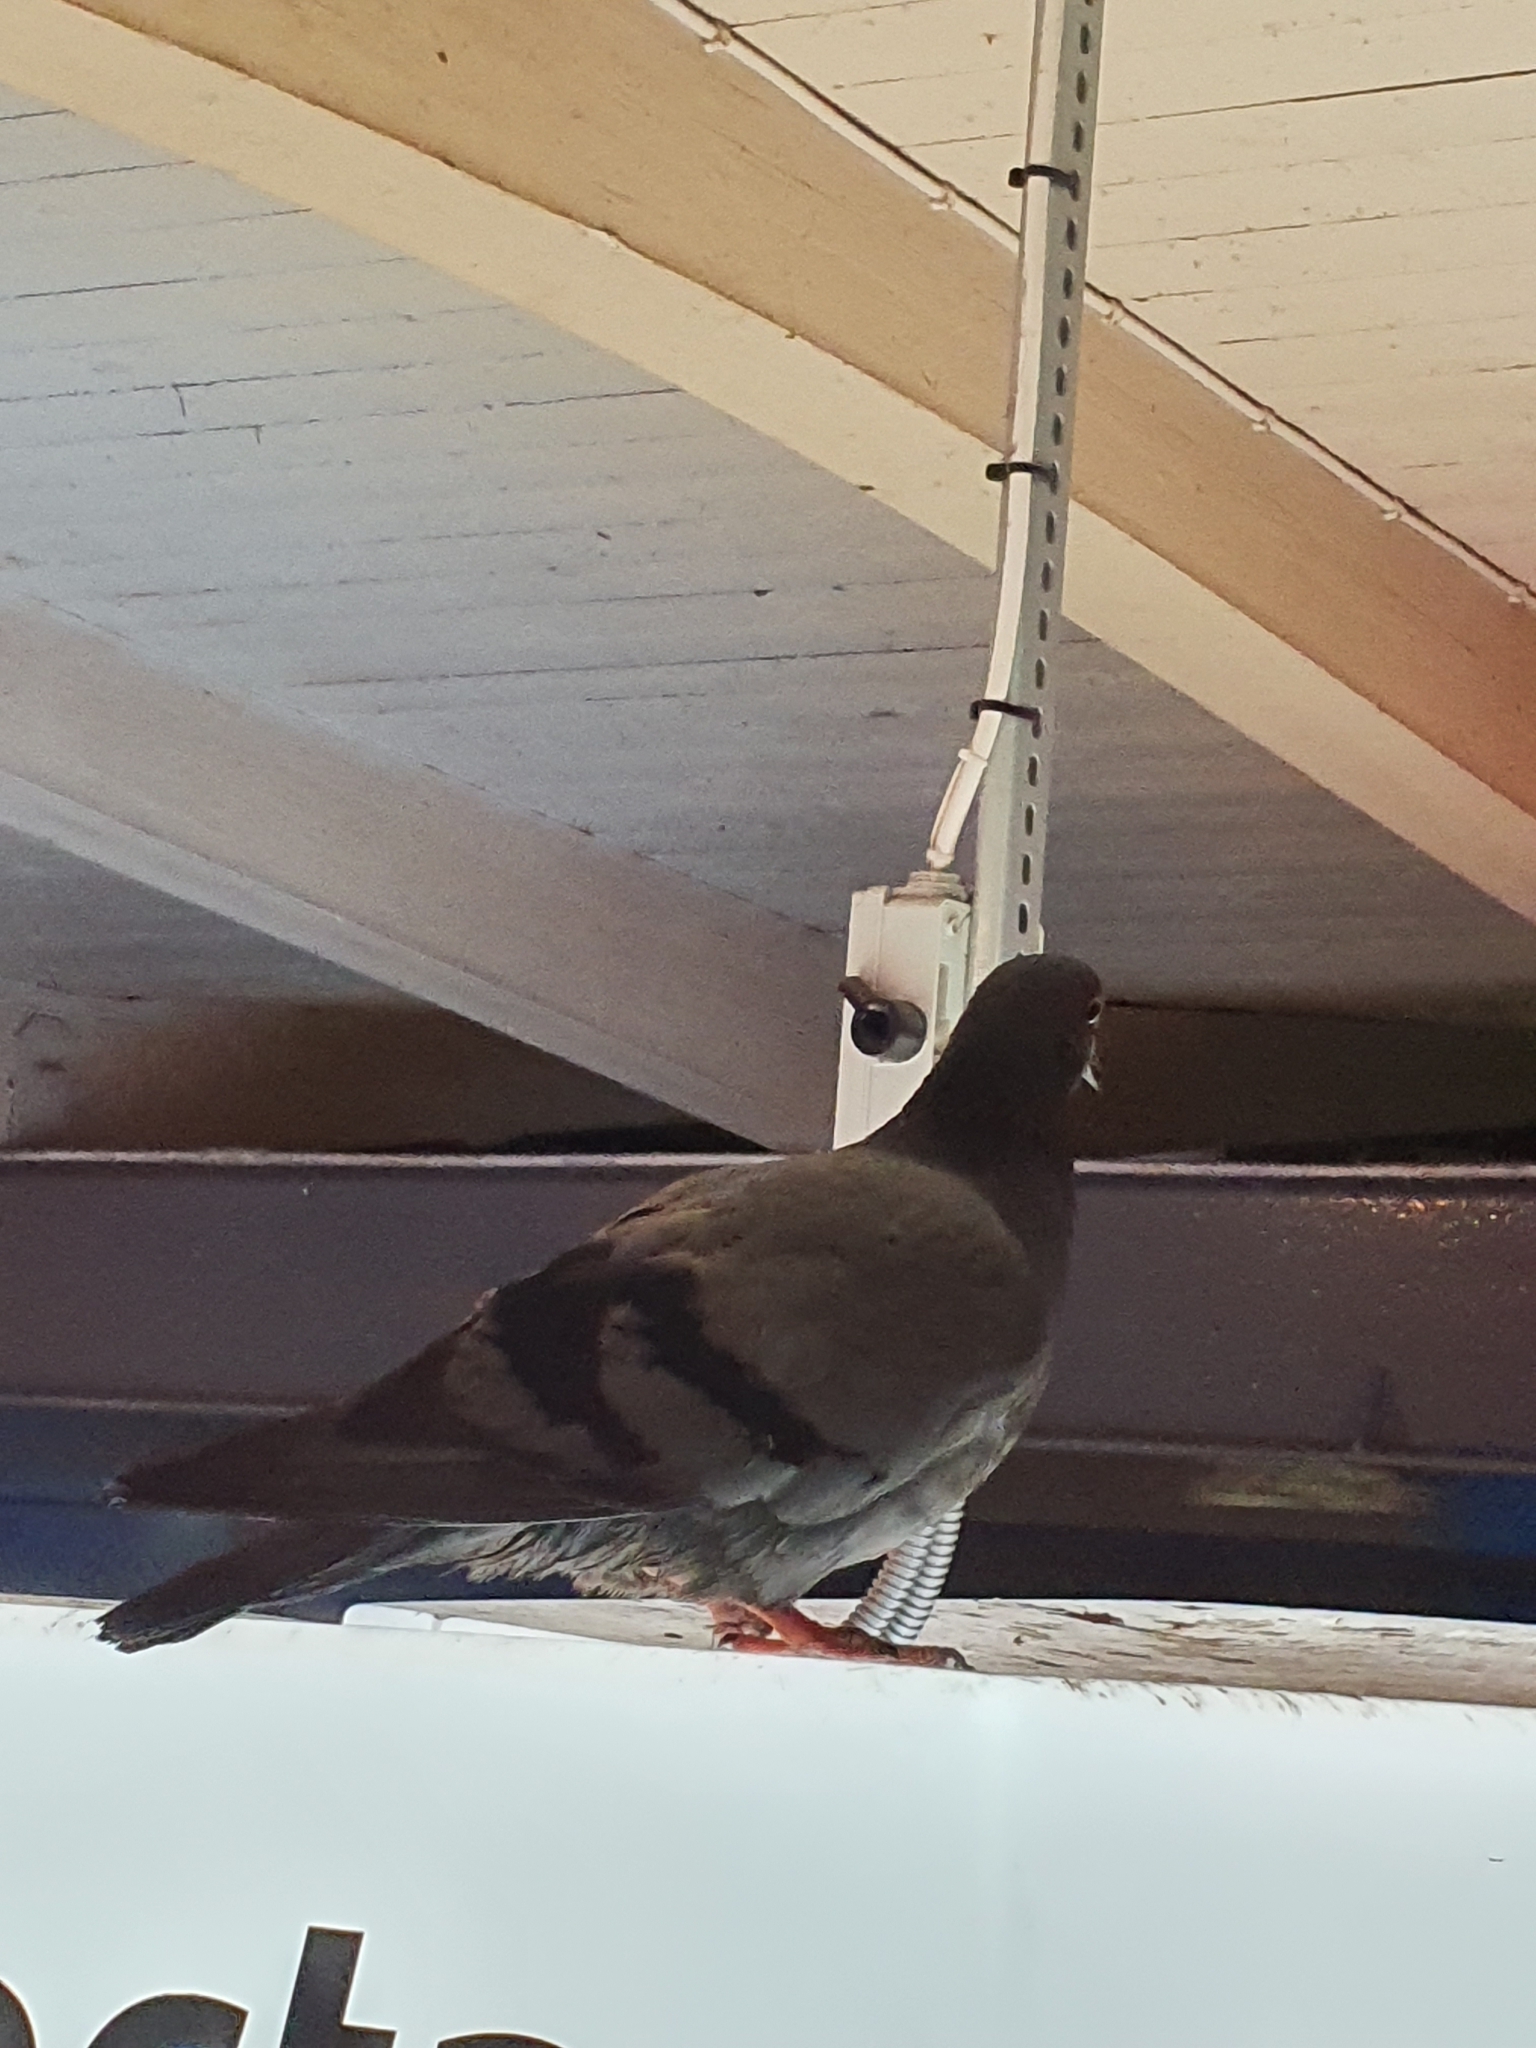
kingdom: Animalia
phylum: Chordata
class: Aves
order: Columbiformes
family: Columbidae
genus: Columba
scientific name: Columba livia
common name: Rock pigeon
